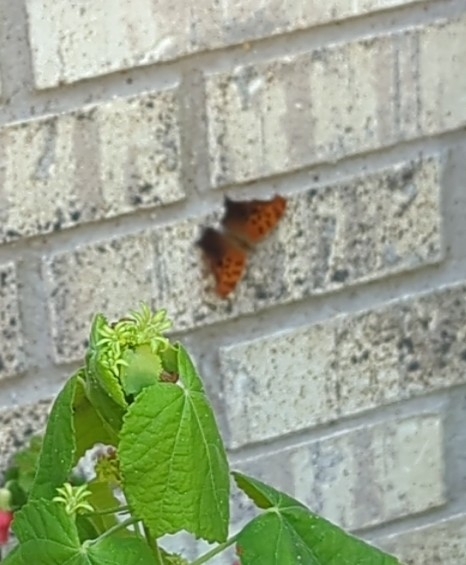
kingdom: Animalia
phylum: Arthropoda
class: Insecta
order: Lepidoptera
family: Nymphalidae
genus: Polygonia
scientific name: Polygonia interrogationis
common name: Question mark
